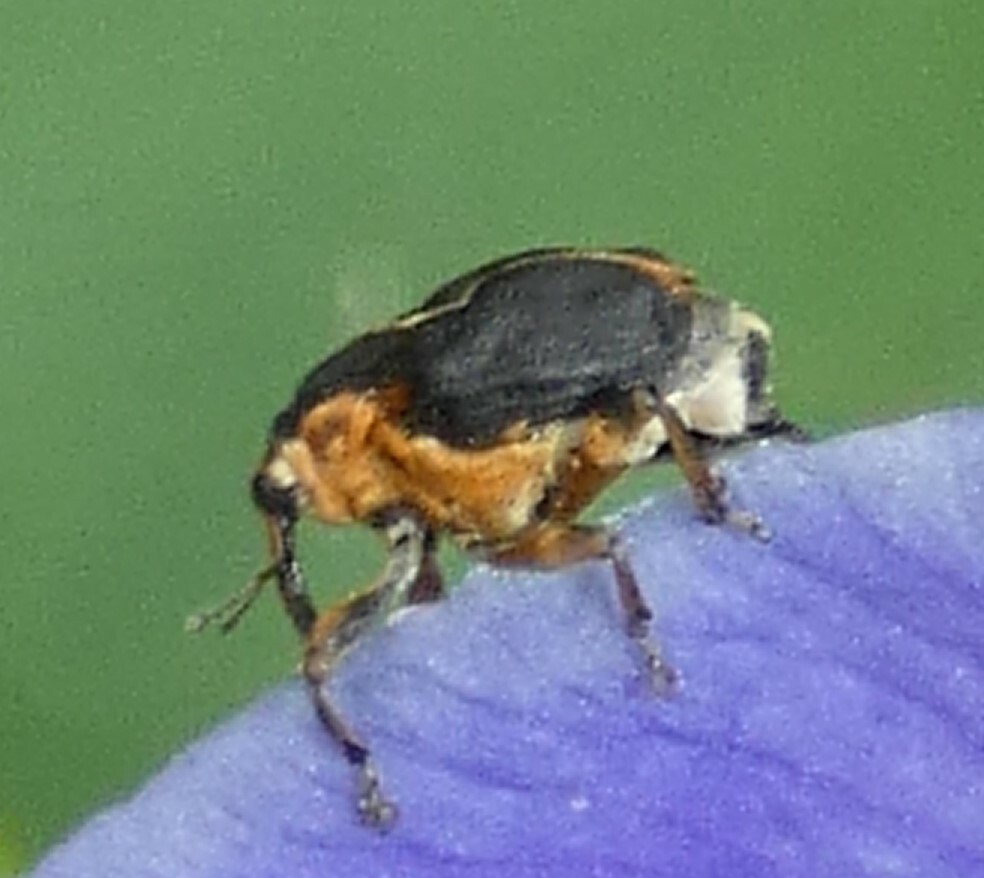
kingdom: Animalia
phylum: Arthropoda
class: Insecta
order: Coleoptera
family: Curculionidae
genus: Mononychus
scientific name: Mononychus vulpeculus
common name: Iris weevil
